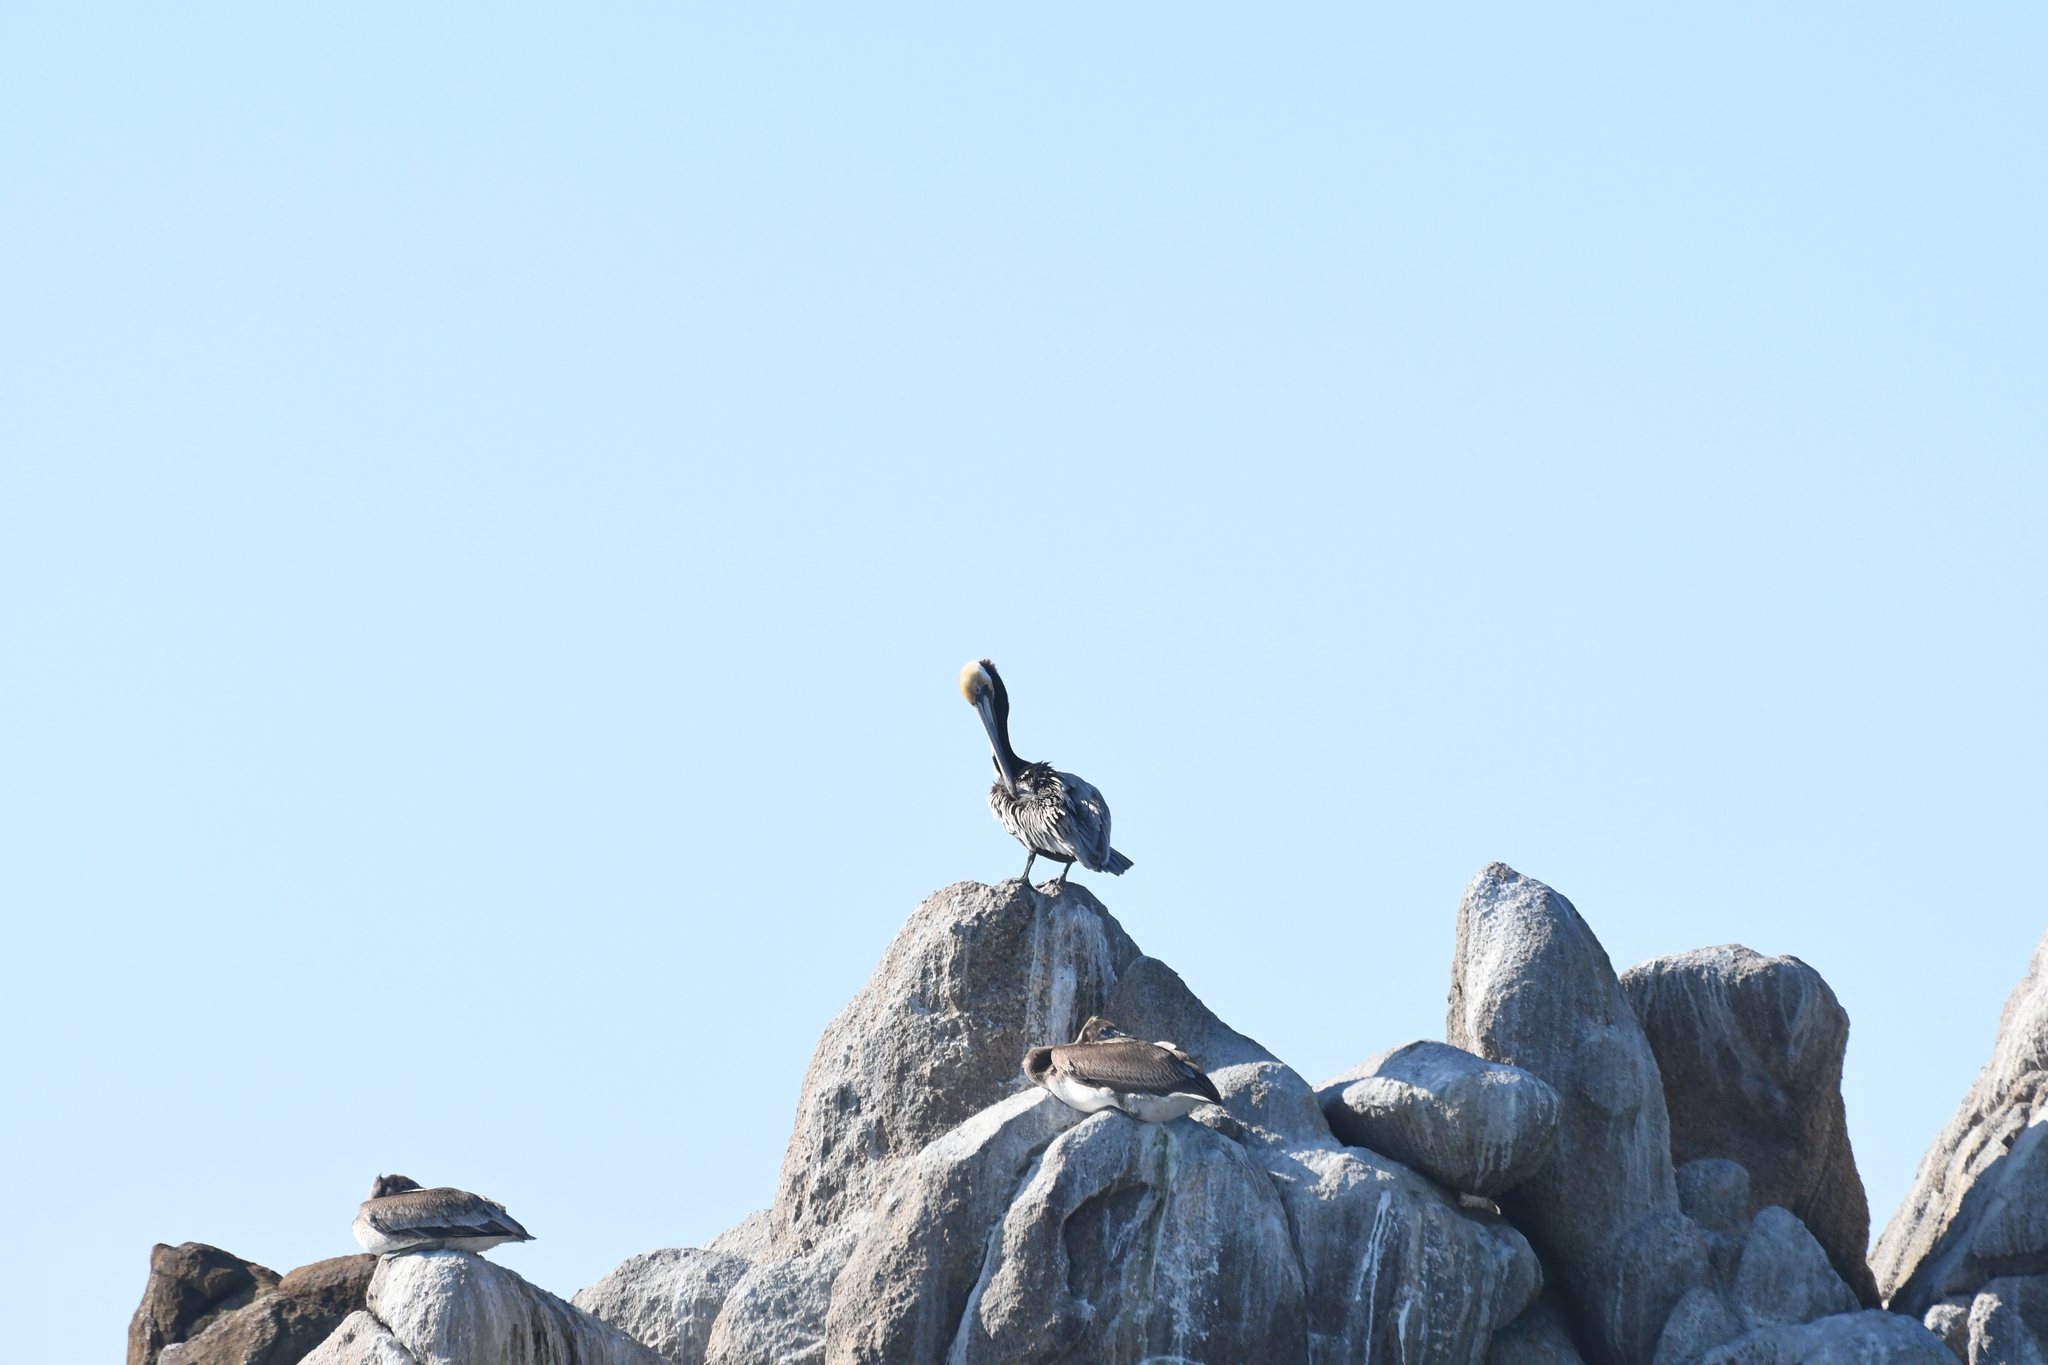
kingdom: Animalia
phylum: Chordata
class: Aves
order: Pelecaniformes
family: Pelecanidae
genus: Pelecanus
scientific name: Pelecanus occidentalis
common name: Brown pelican
